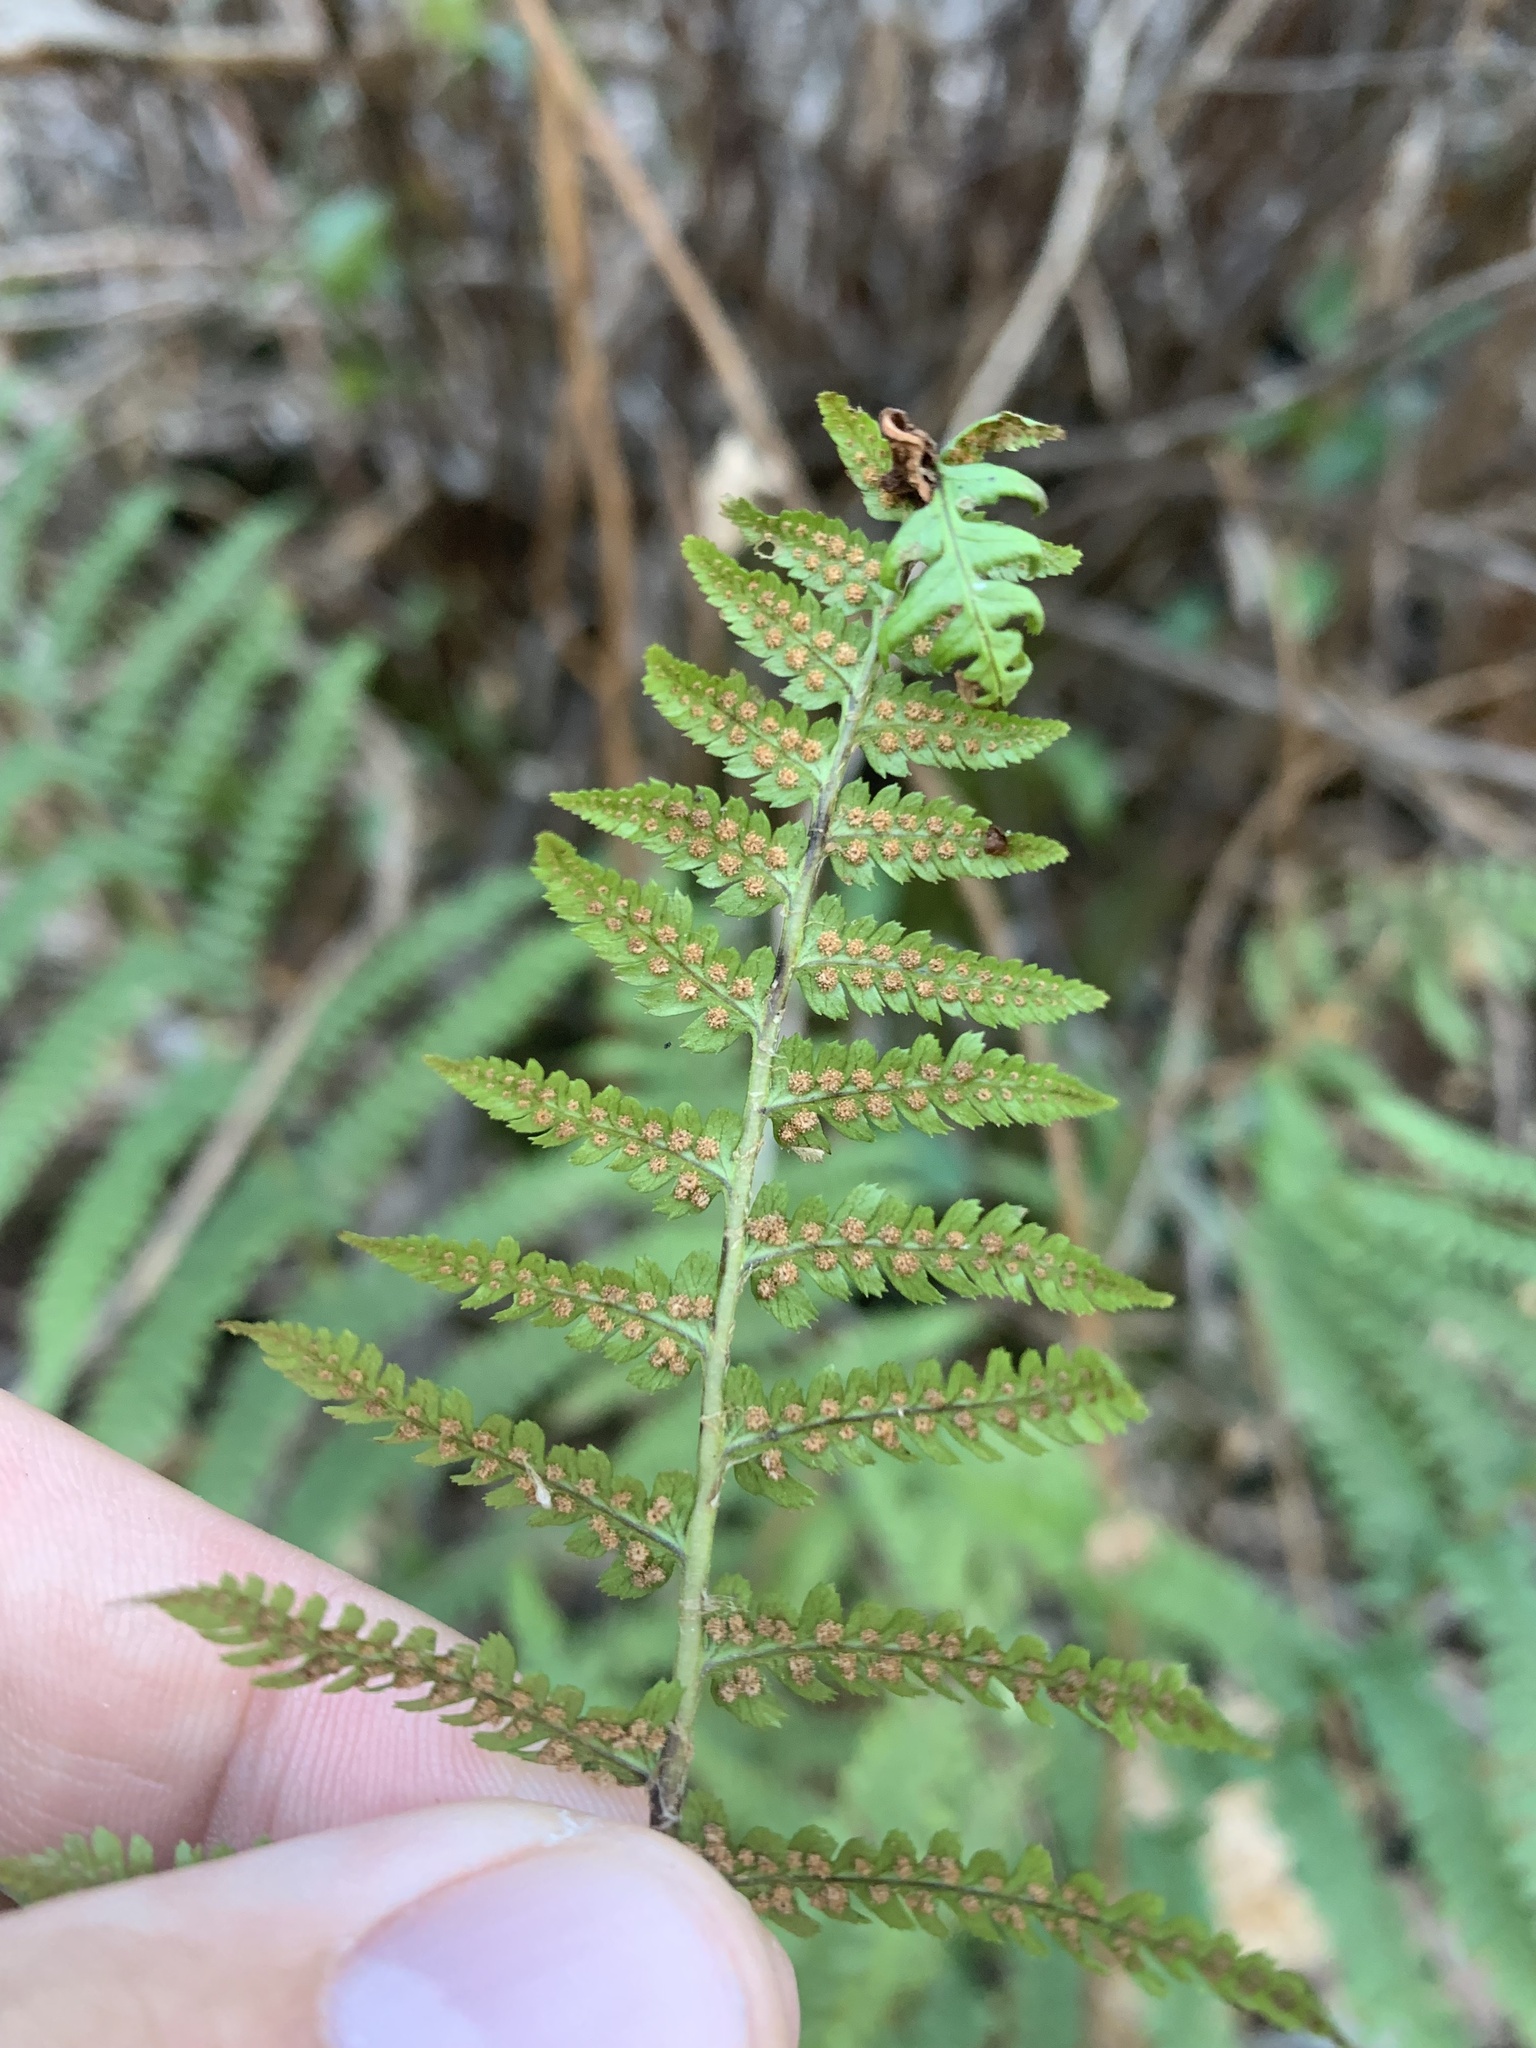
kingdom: Plantae
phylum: Tracheophyta
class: Polypodiopsida
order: Polypodiales
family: Dryopteridaceae
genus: Dryopteris
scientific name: Dryopteris arguta
